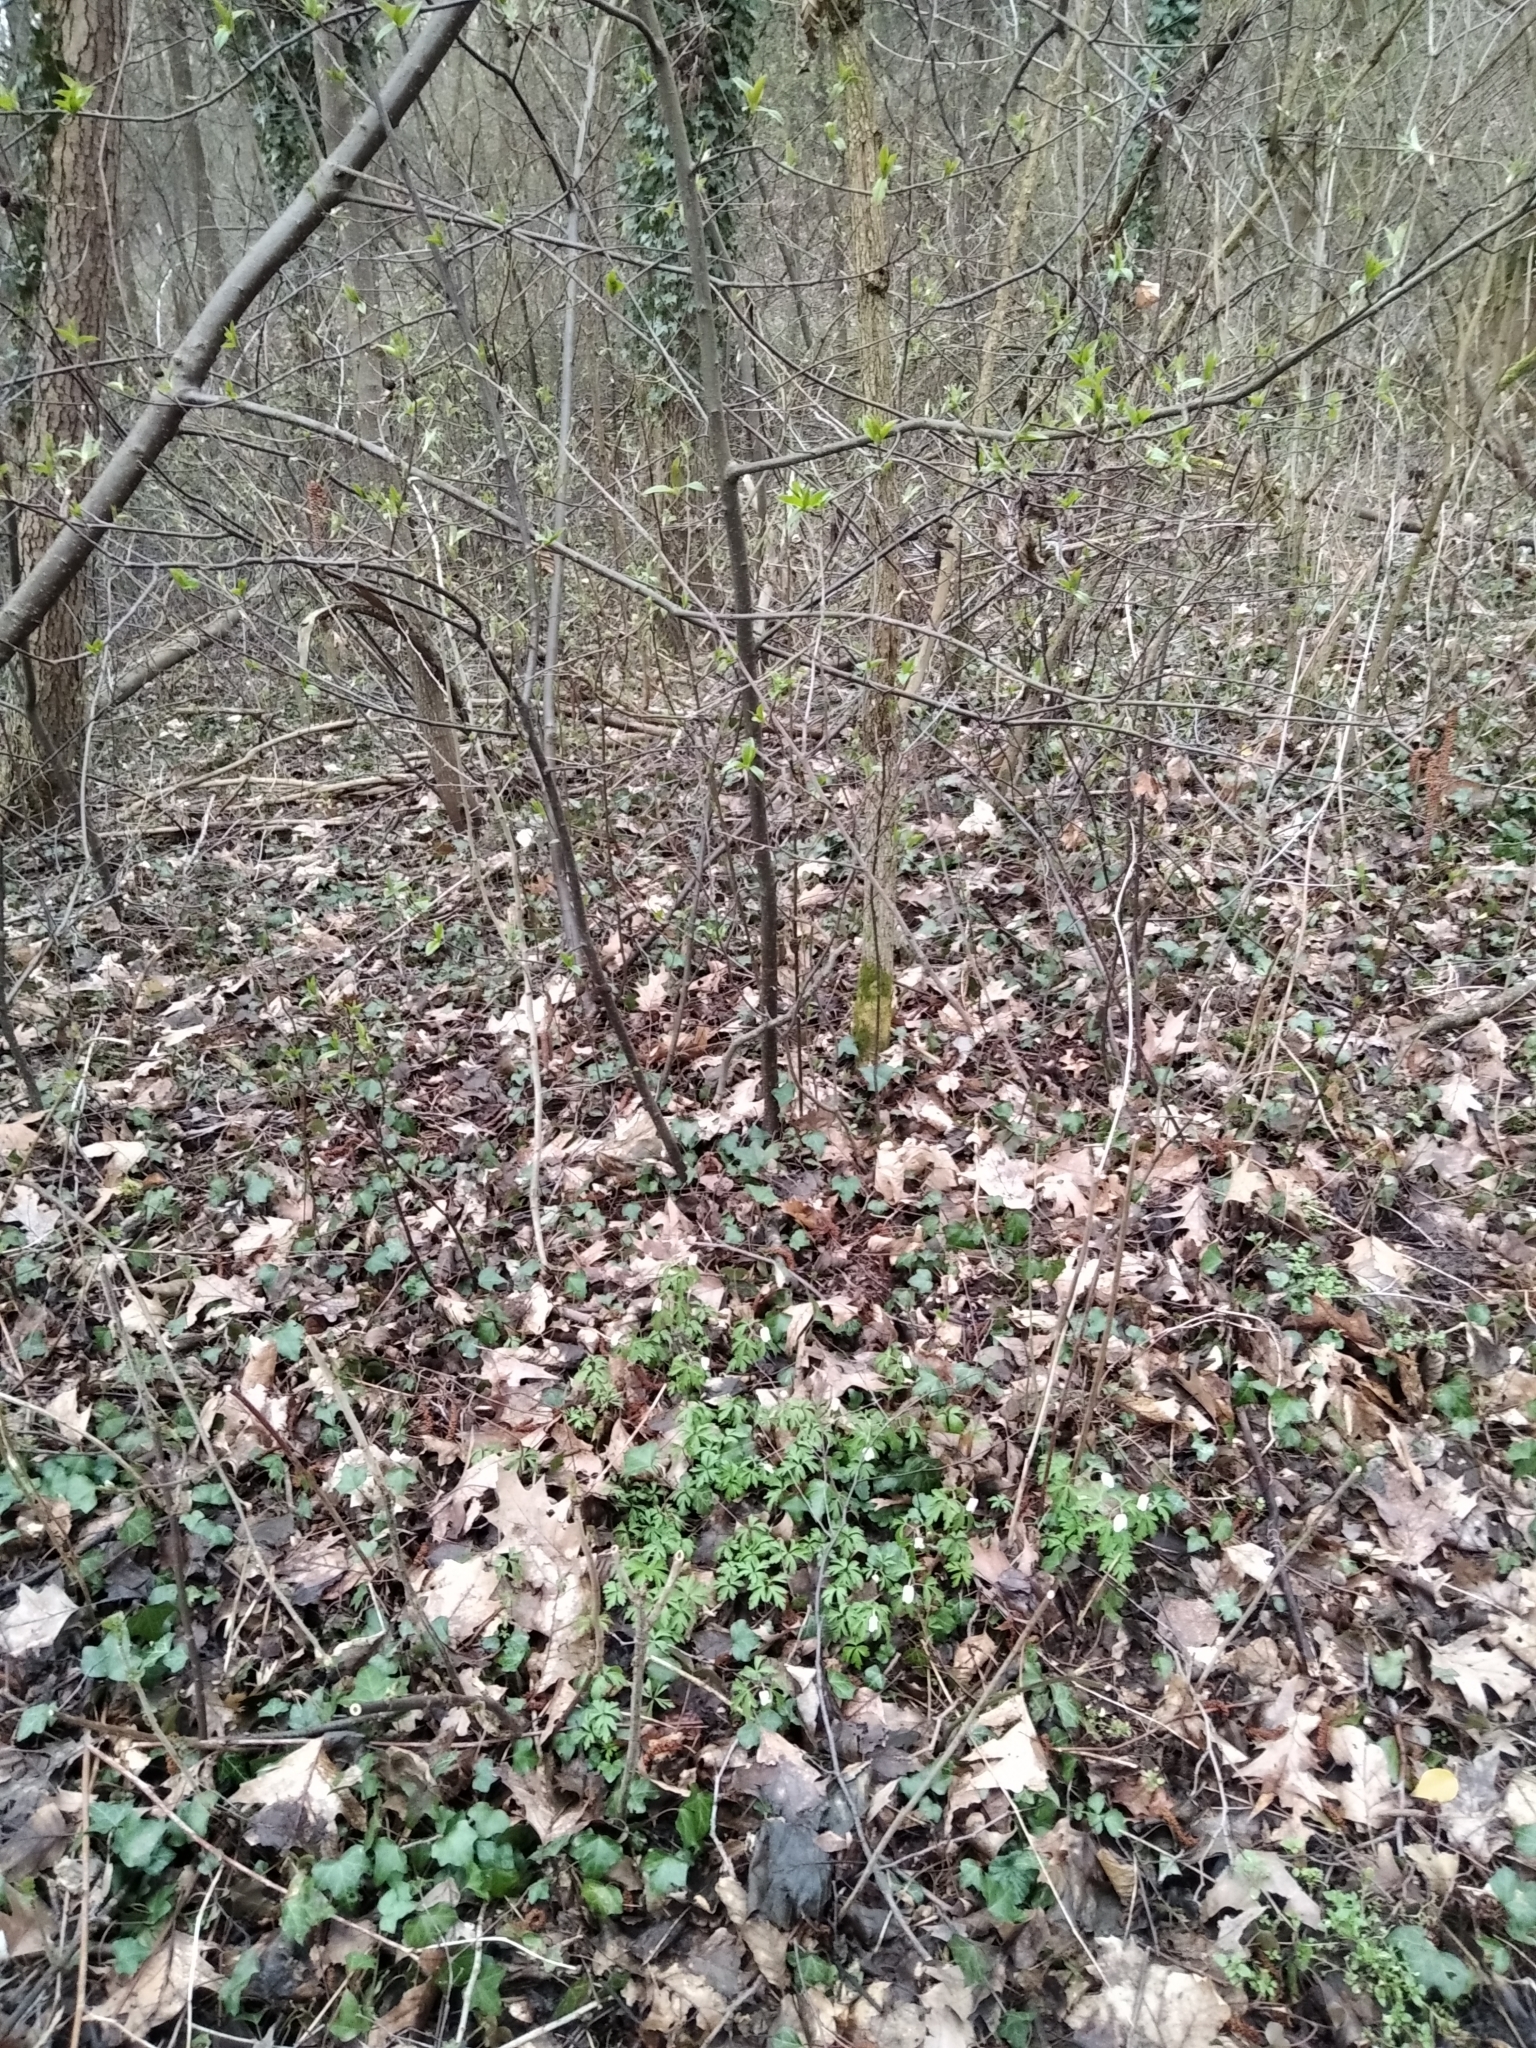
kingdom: Plantae
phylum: Tracheophyta
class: Magnoliopsida
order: Ranunculales
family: Ranunculaceae
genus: Anemone
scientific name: Anemone nemorosa
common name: Wood anemone
